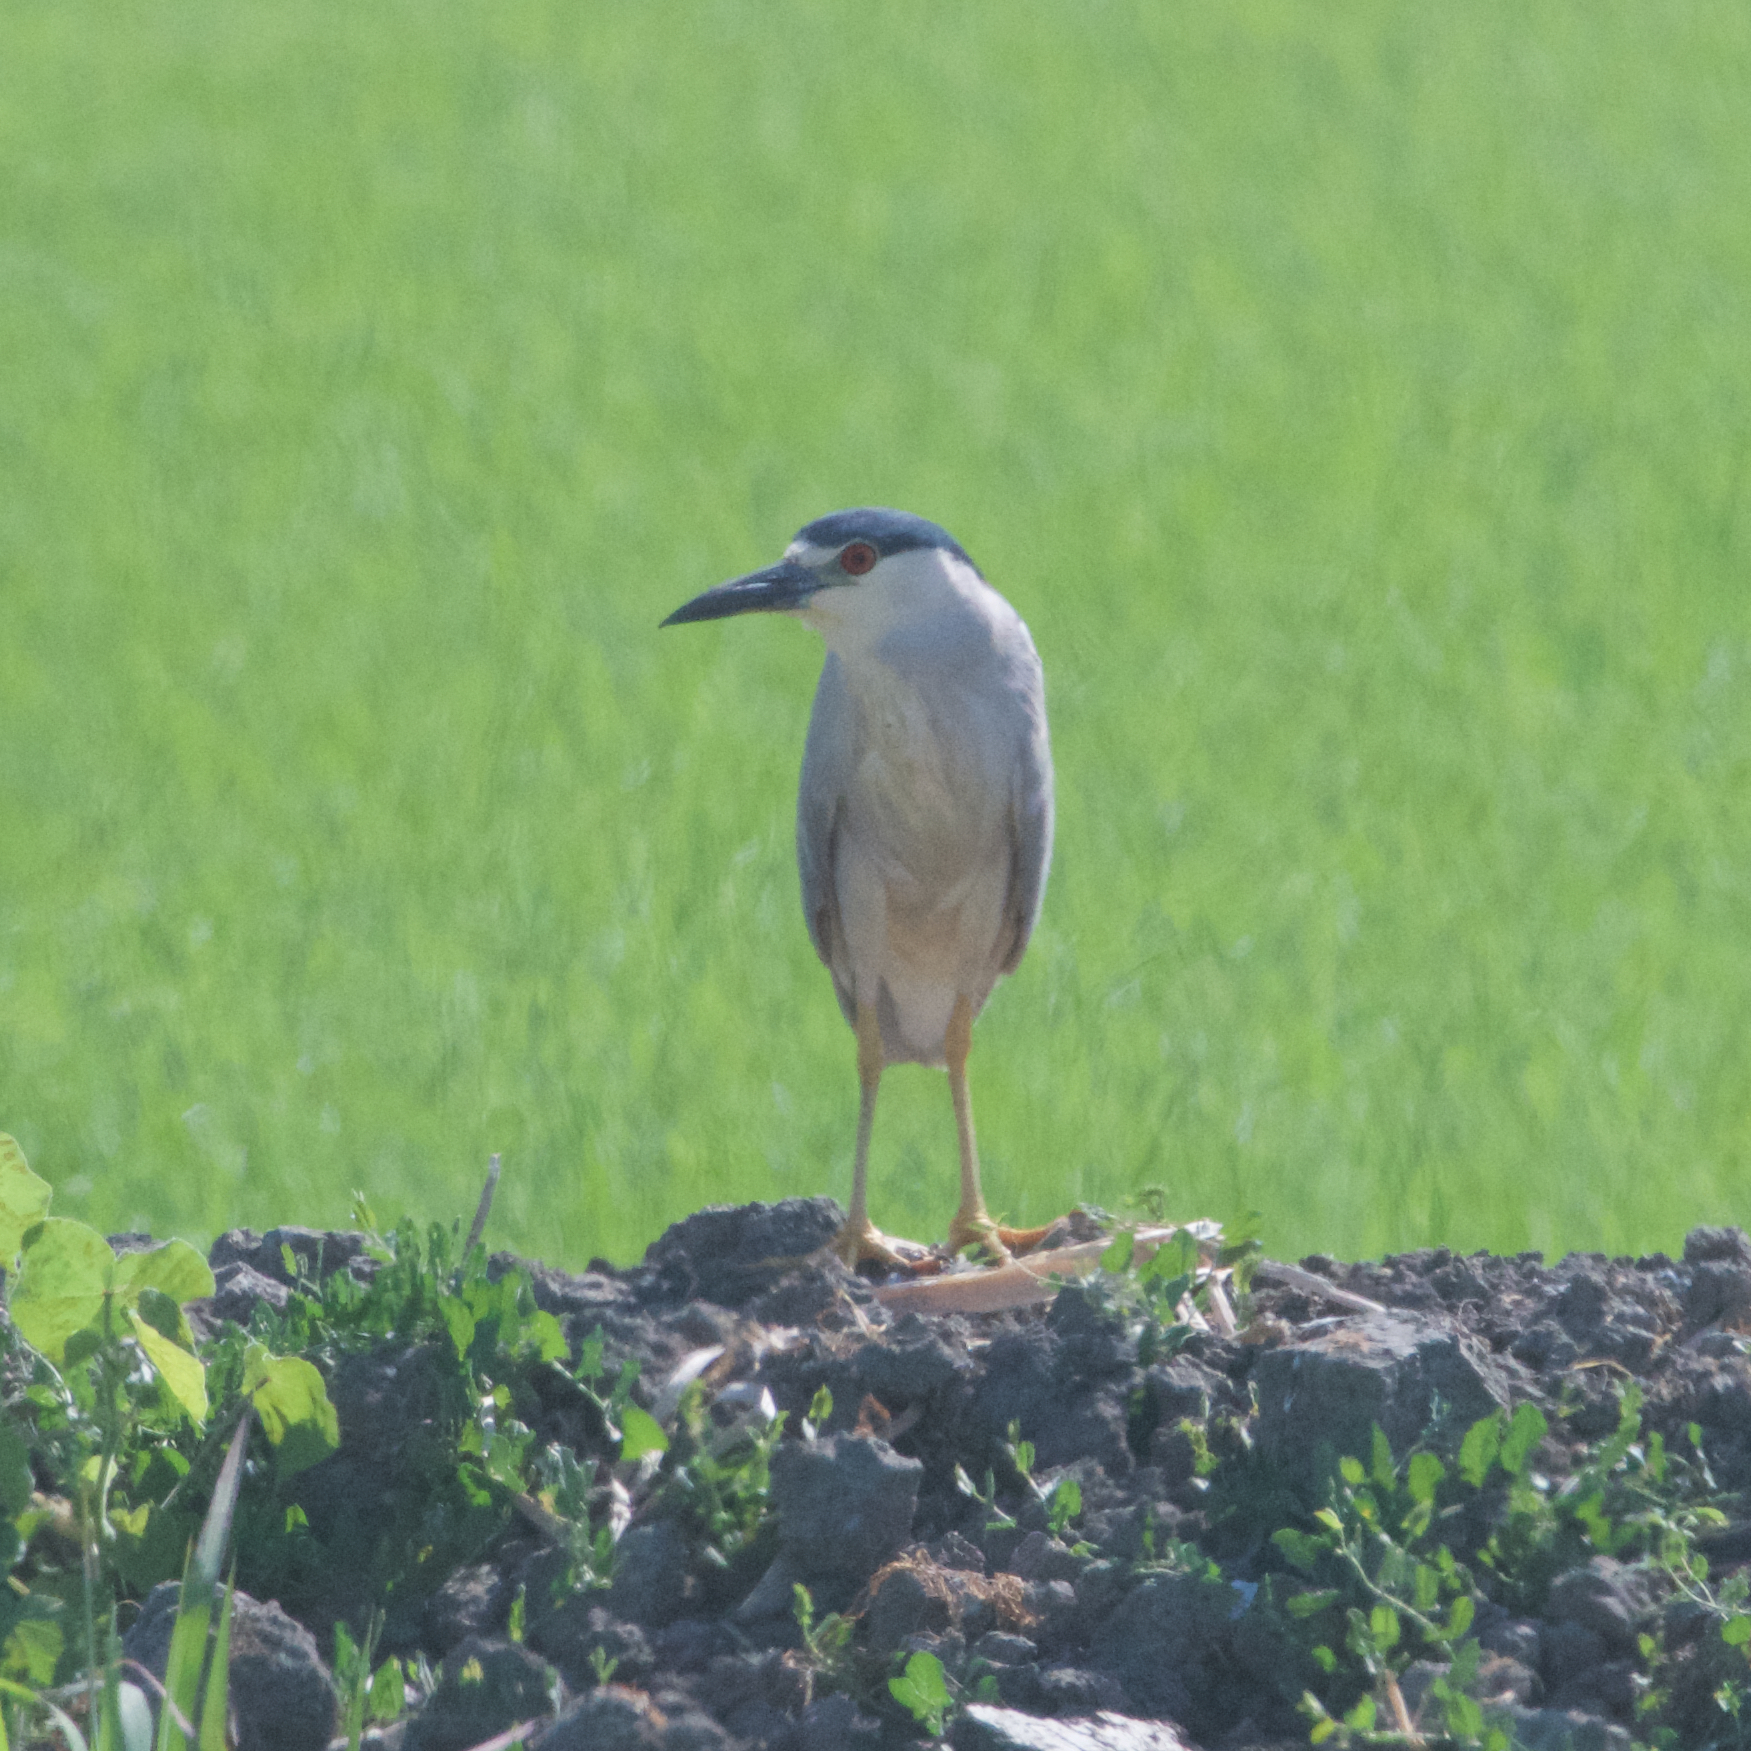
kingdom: Animalia
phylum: Chordata
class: Aves
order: Pelecaniformes
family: Ardeidae
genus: Nycticorax
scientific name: Nycticorax nycticorax
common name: Black-crowned night heron
